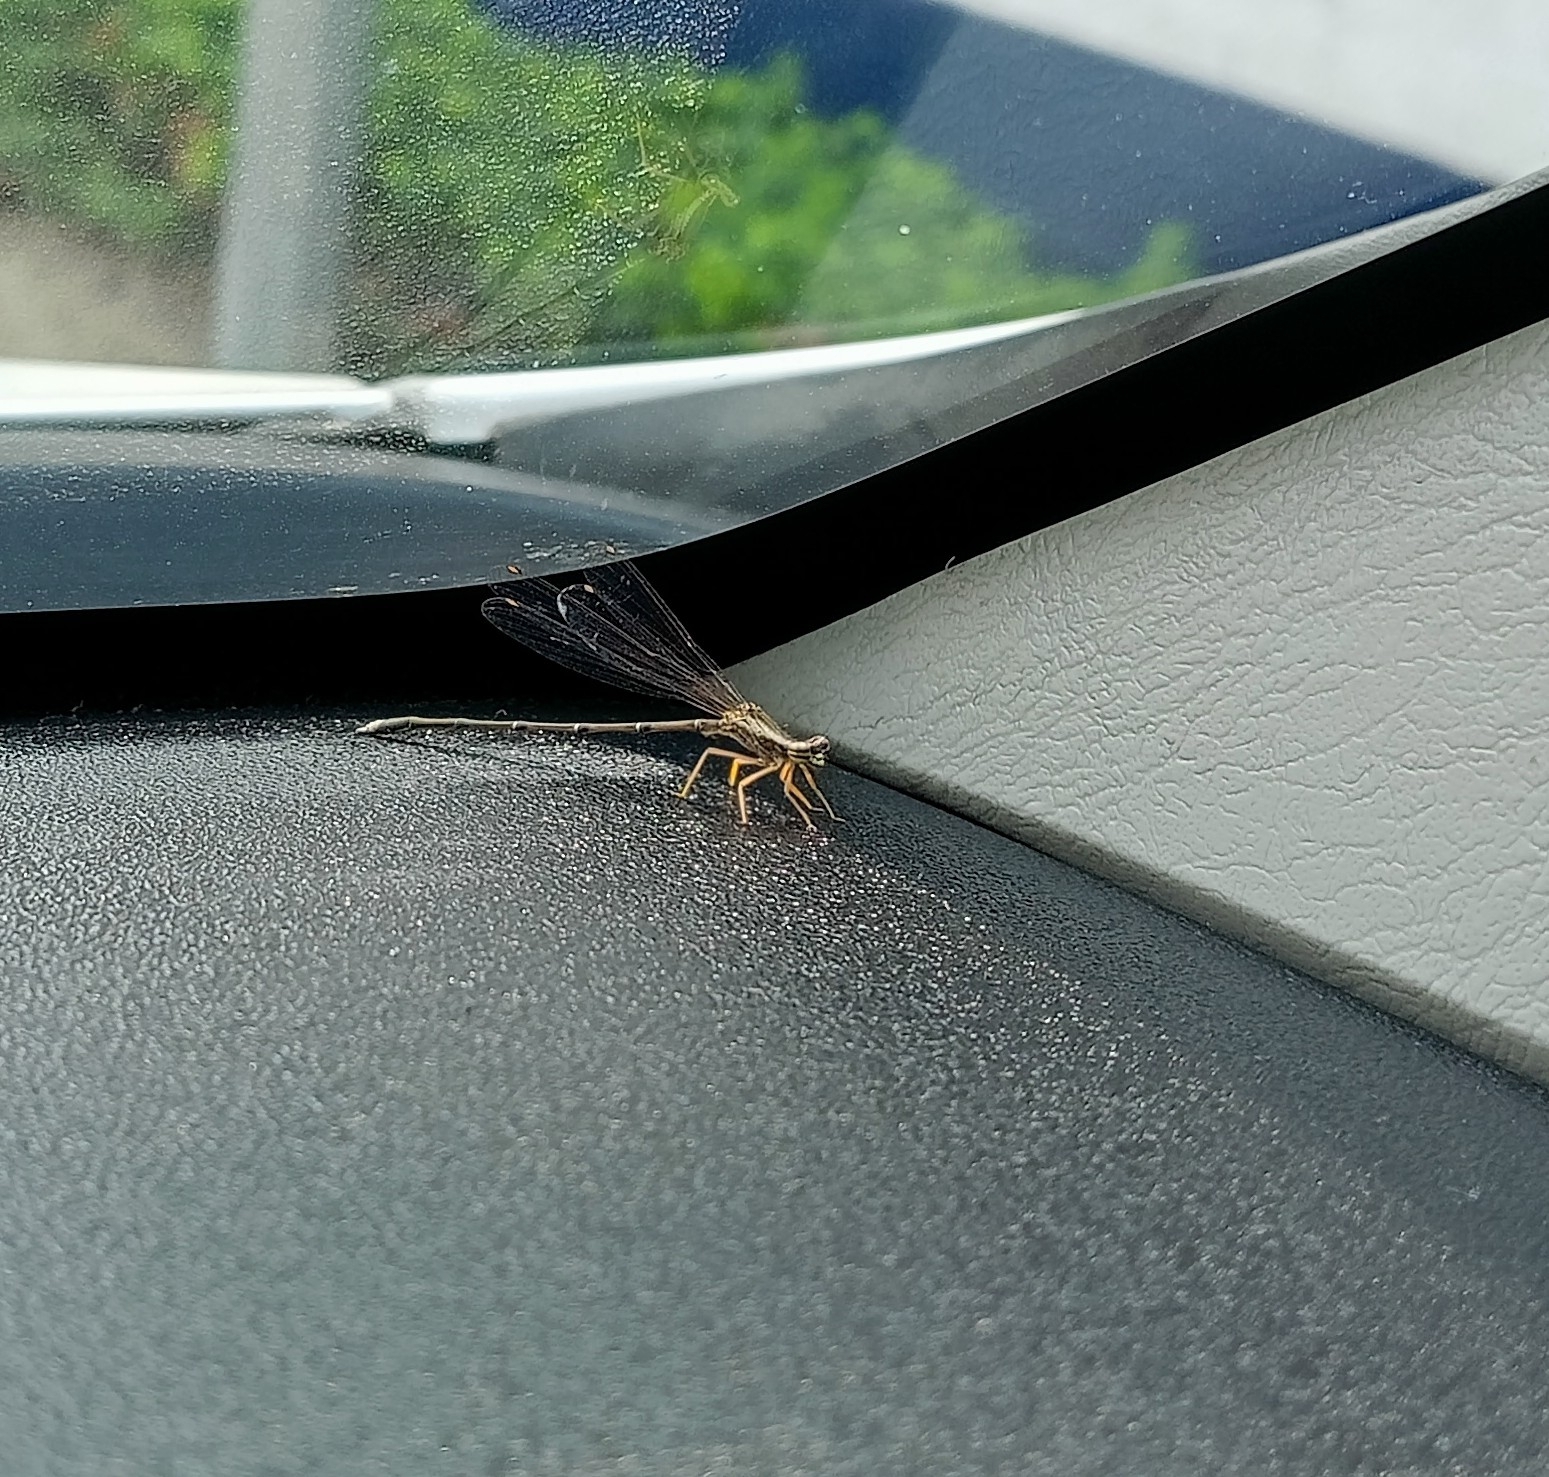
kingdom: Animalia
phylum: Arthropoda
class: Insecta
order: Odonata
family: Platycnemididae
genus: Copera
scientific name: Copera marginipes
